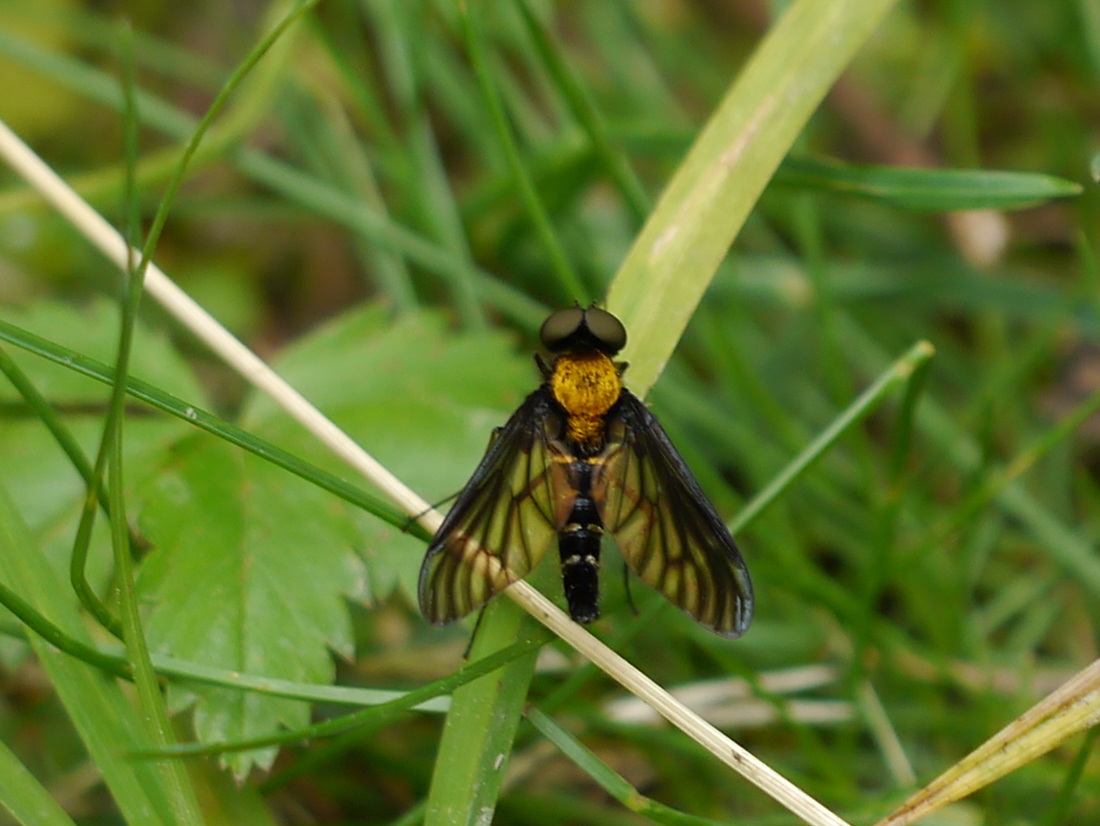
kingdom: Animalia
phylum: Arthropoda
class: Insecta
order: Diptera
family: Rhagionidae
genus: Chrysopilus
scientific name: Chrysopilus thoracicus
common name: Golden-backed snipe fly
